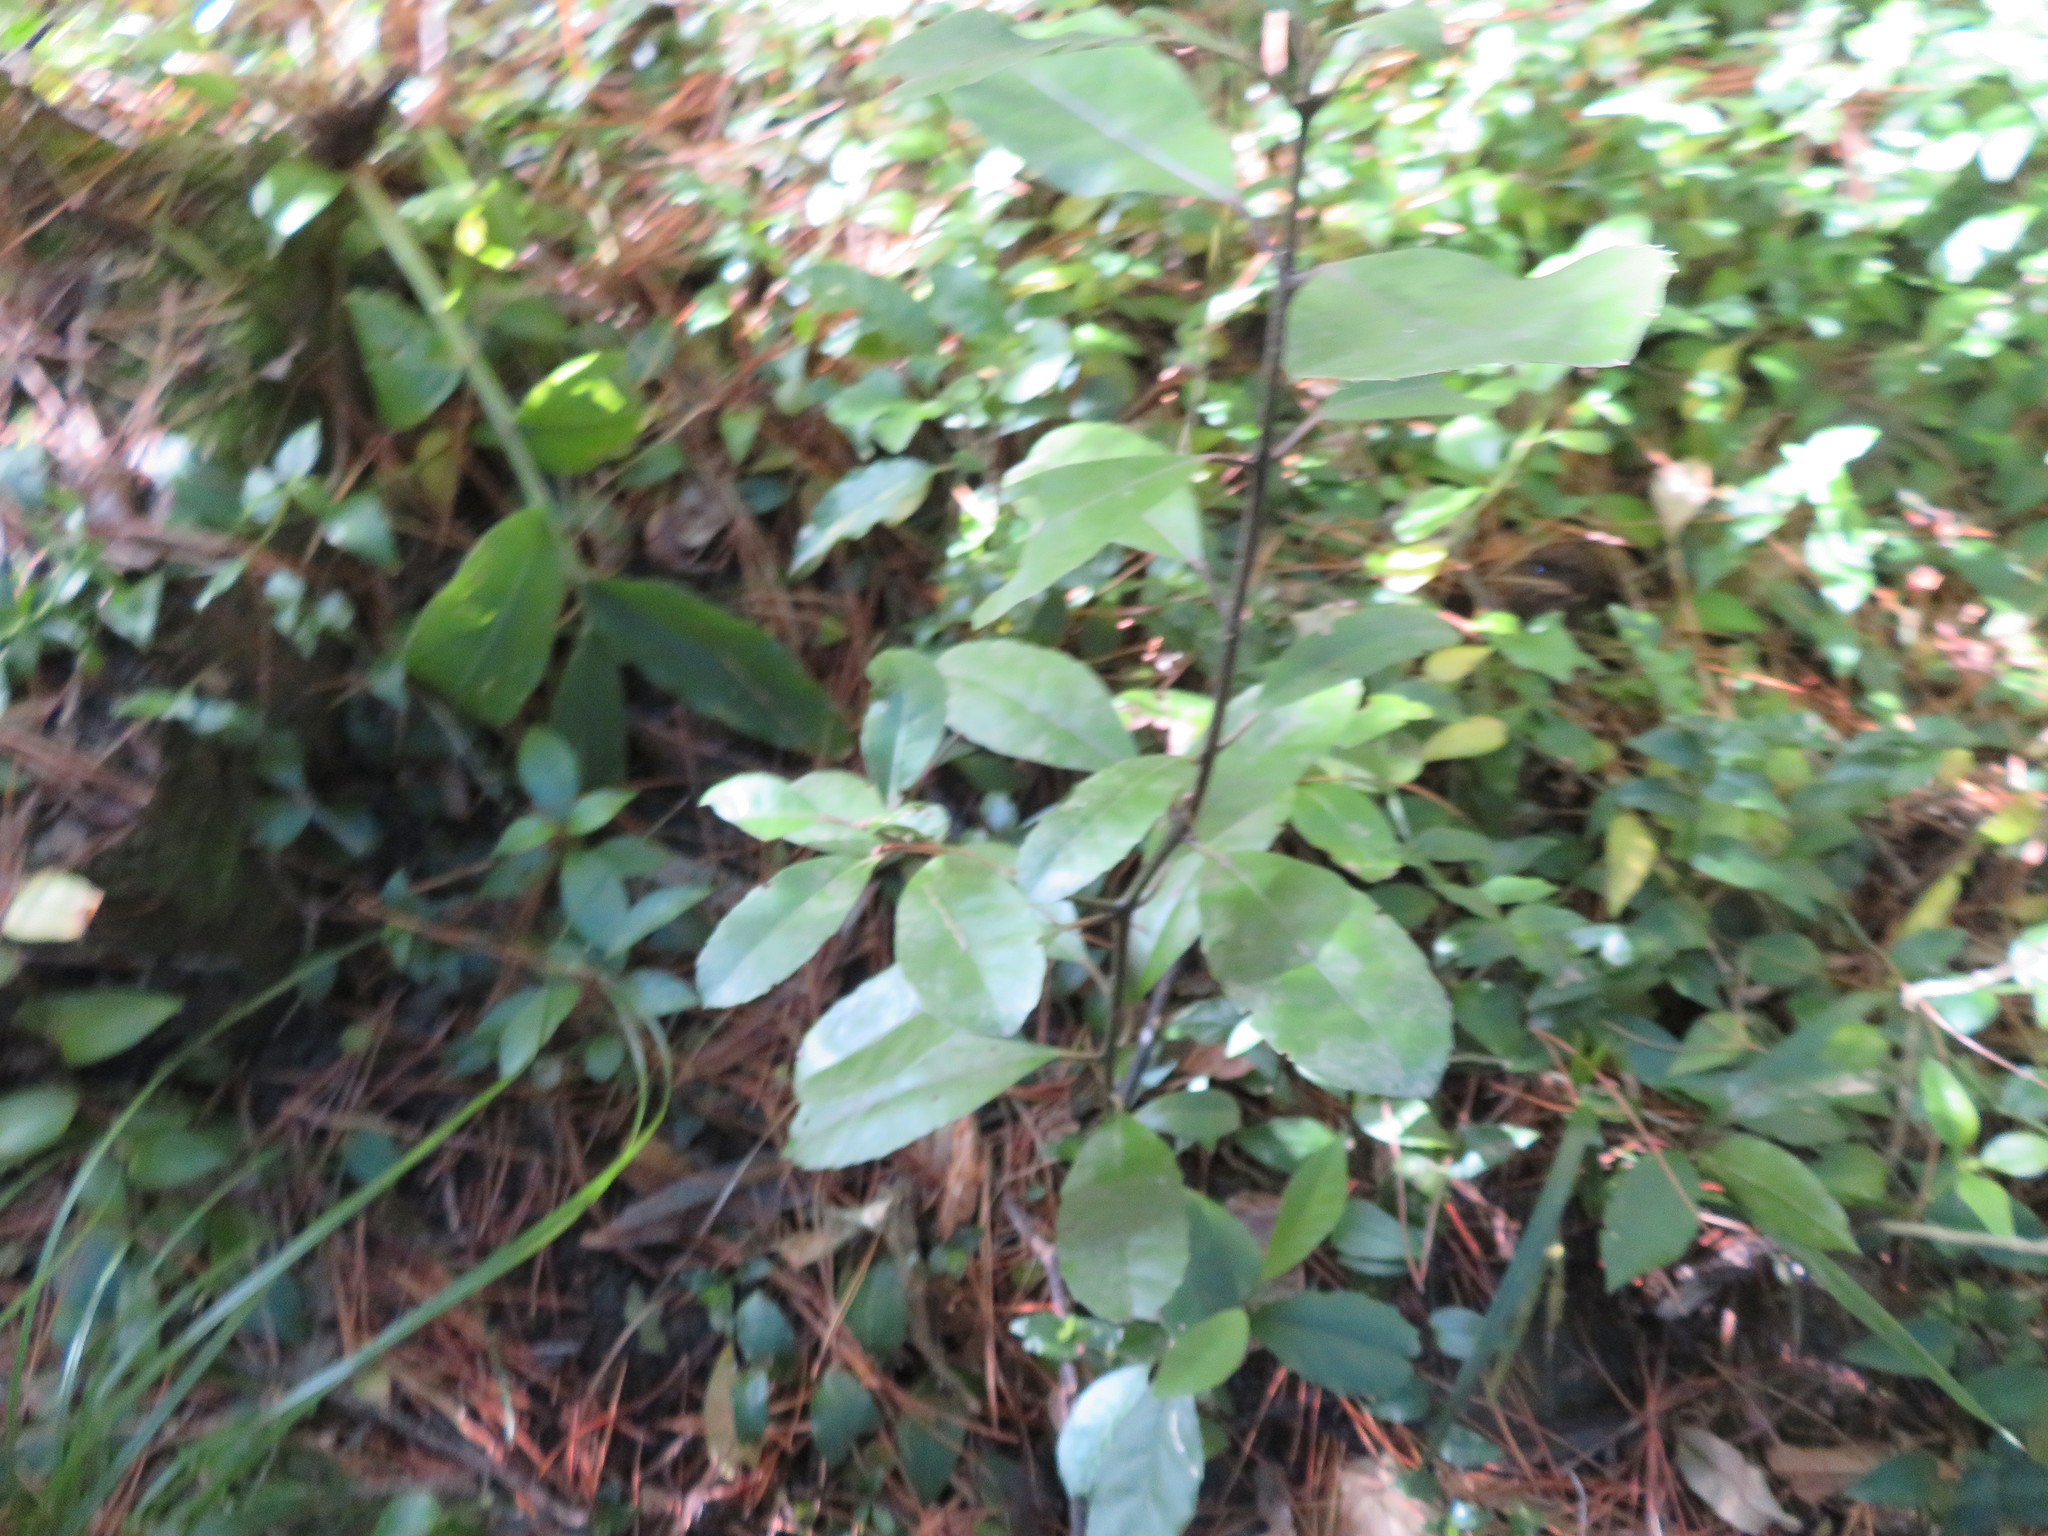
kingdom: Plantae
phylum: Tracheophyta
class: Magnoliopsida
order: Laurales
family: Monimiaceae
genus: Hedycarya
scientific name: Hedycarya arborea
